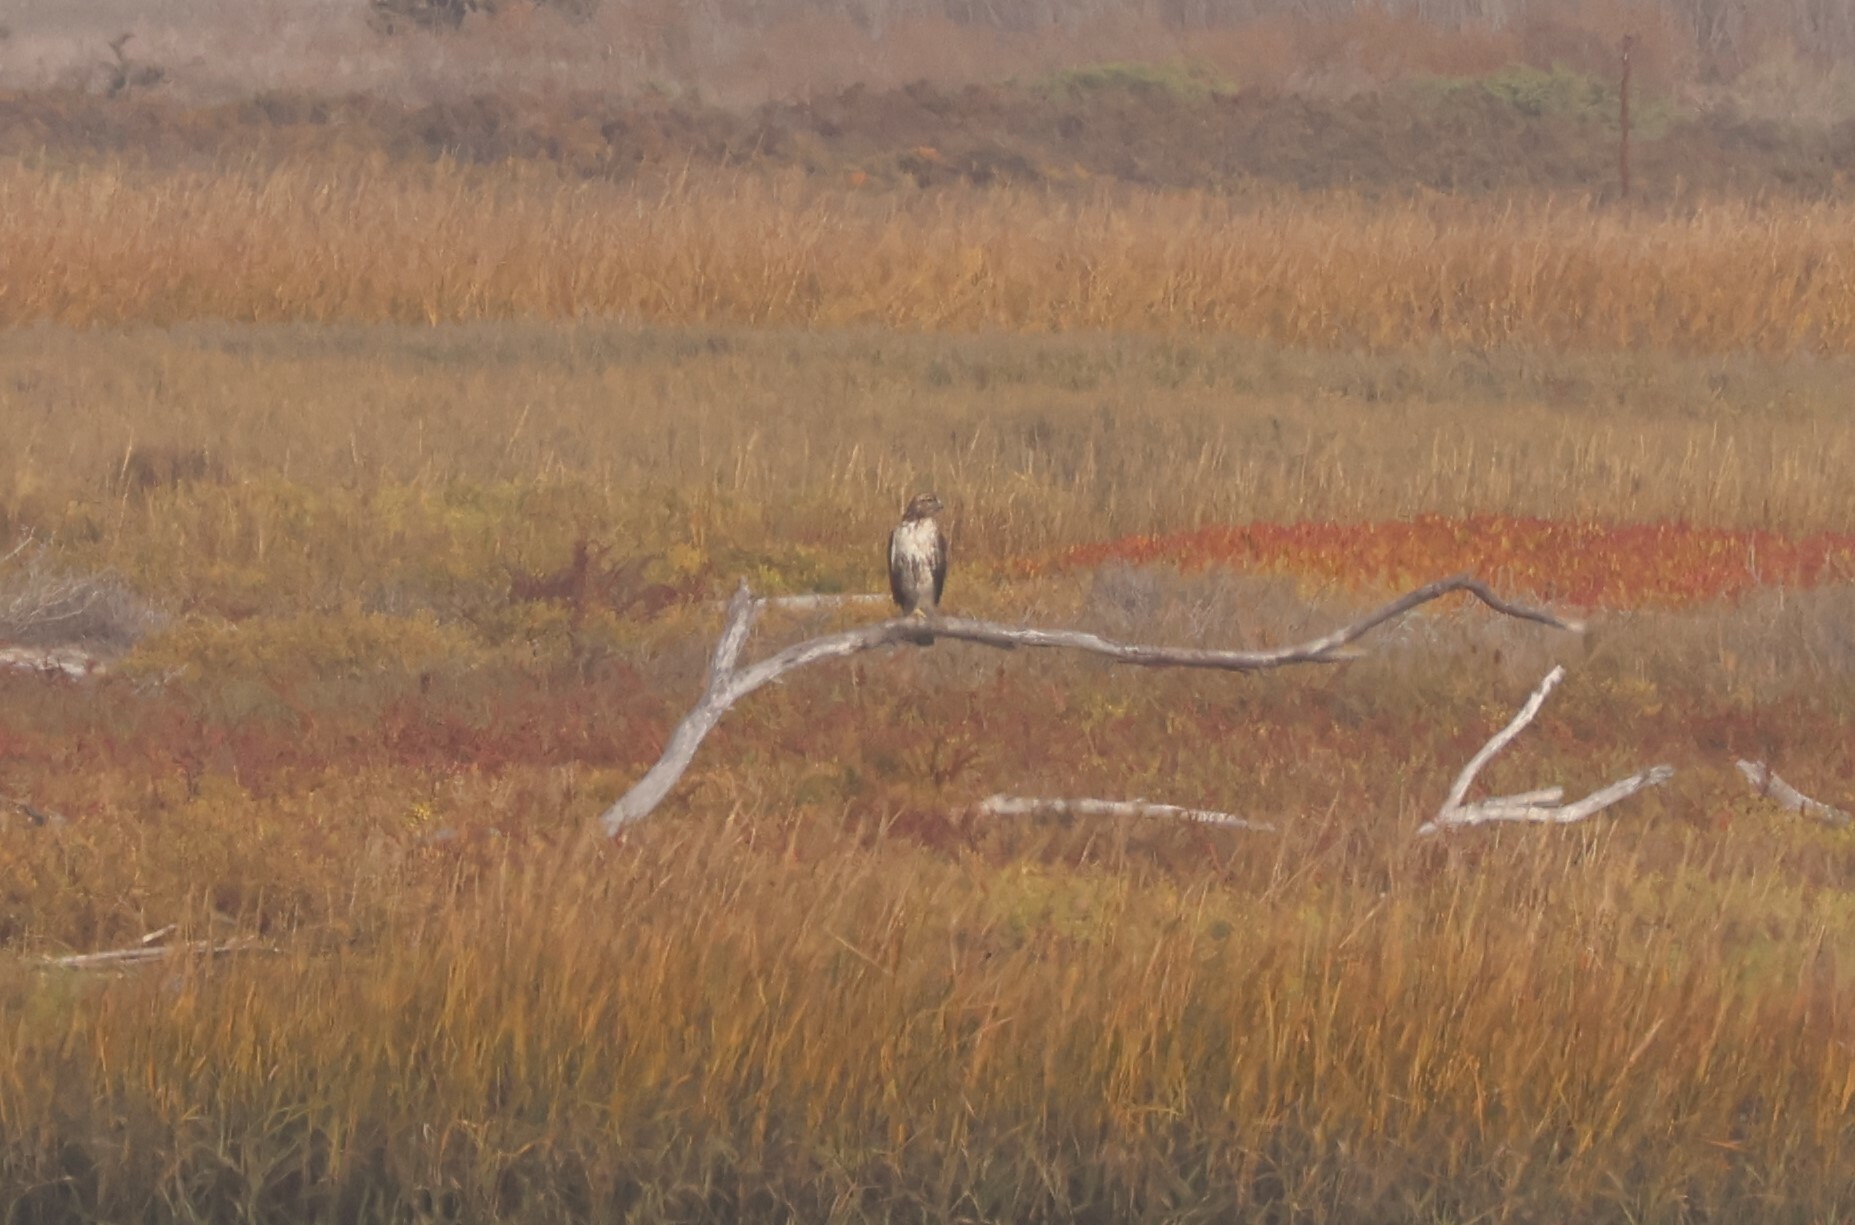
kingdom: Animalia
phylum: Chordata
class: Aves
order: Accipitriformes
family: Accipitridae
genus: Buteo
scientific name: Buteo jamaicensis
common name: Red-tailed hawk
